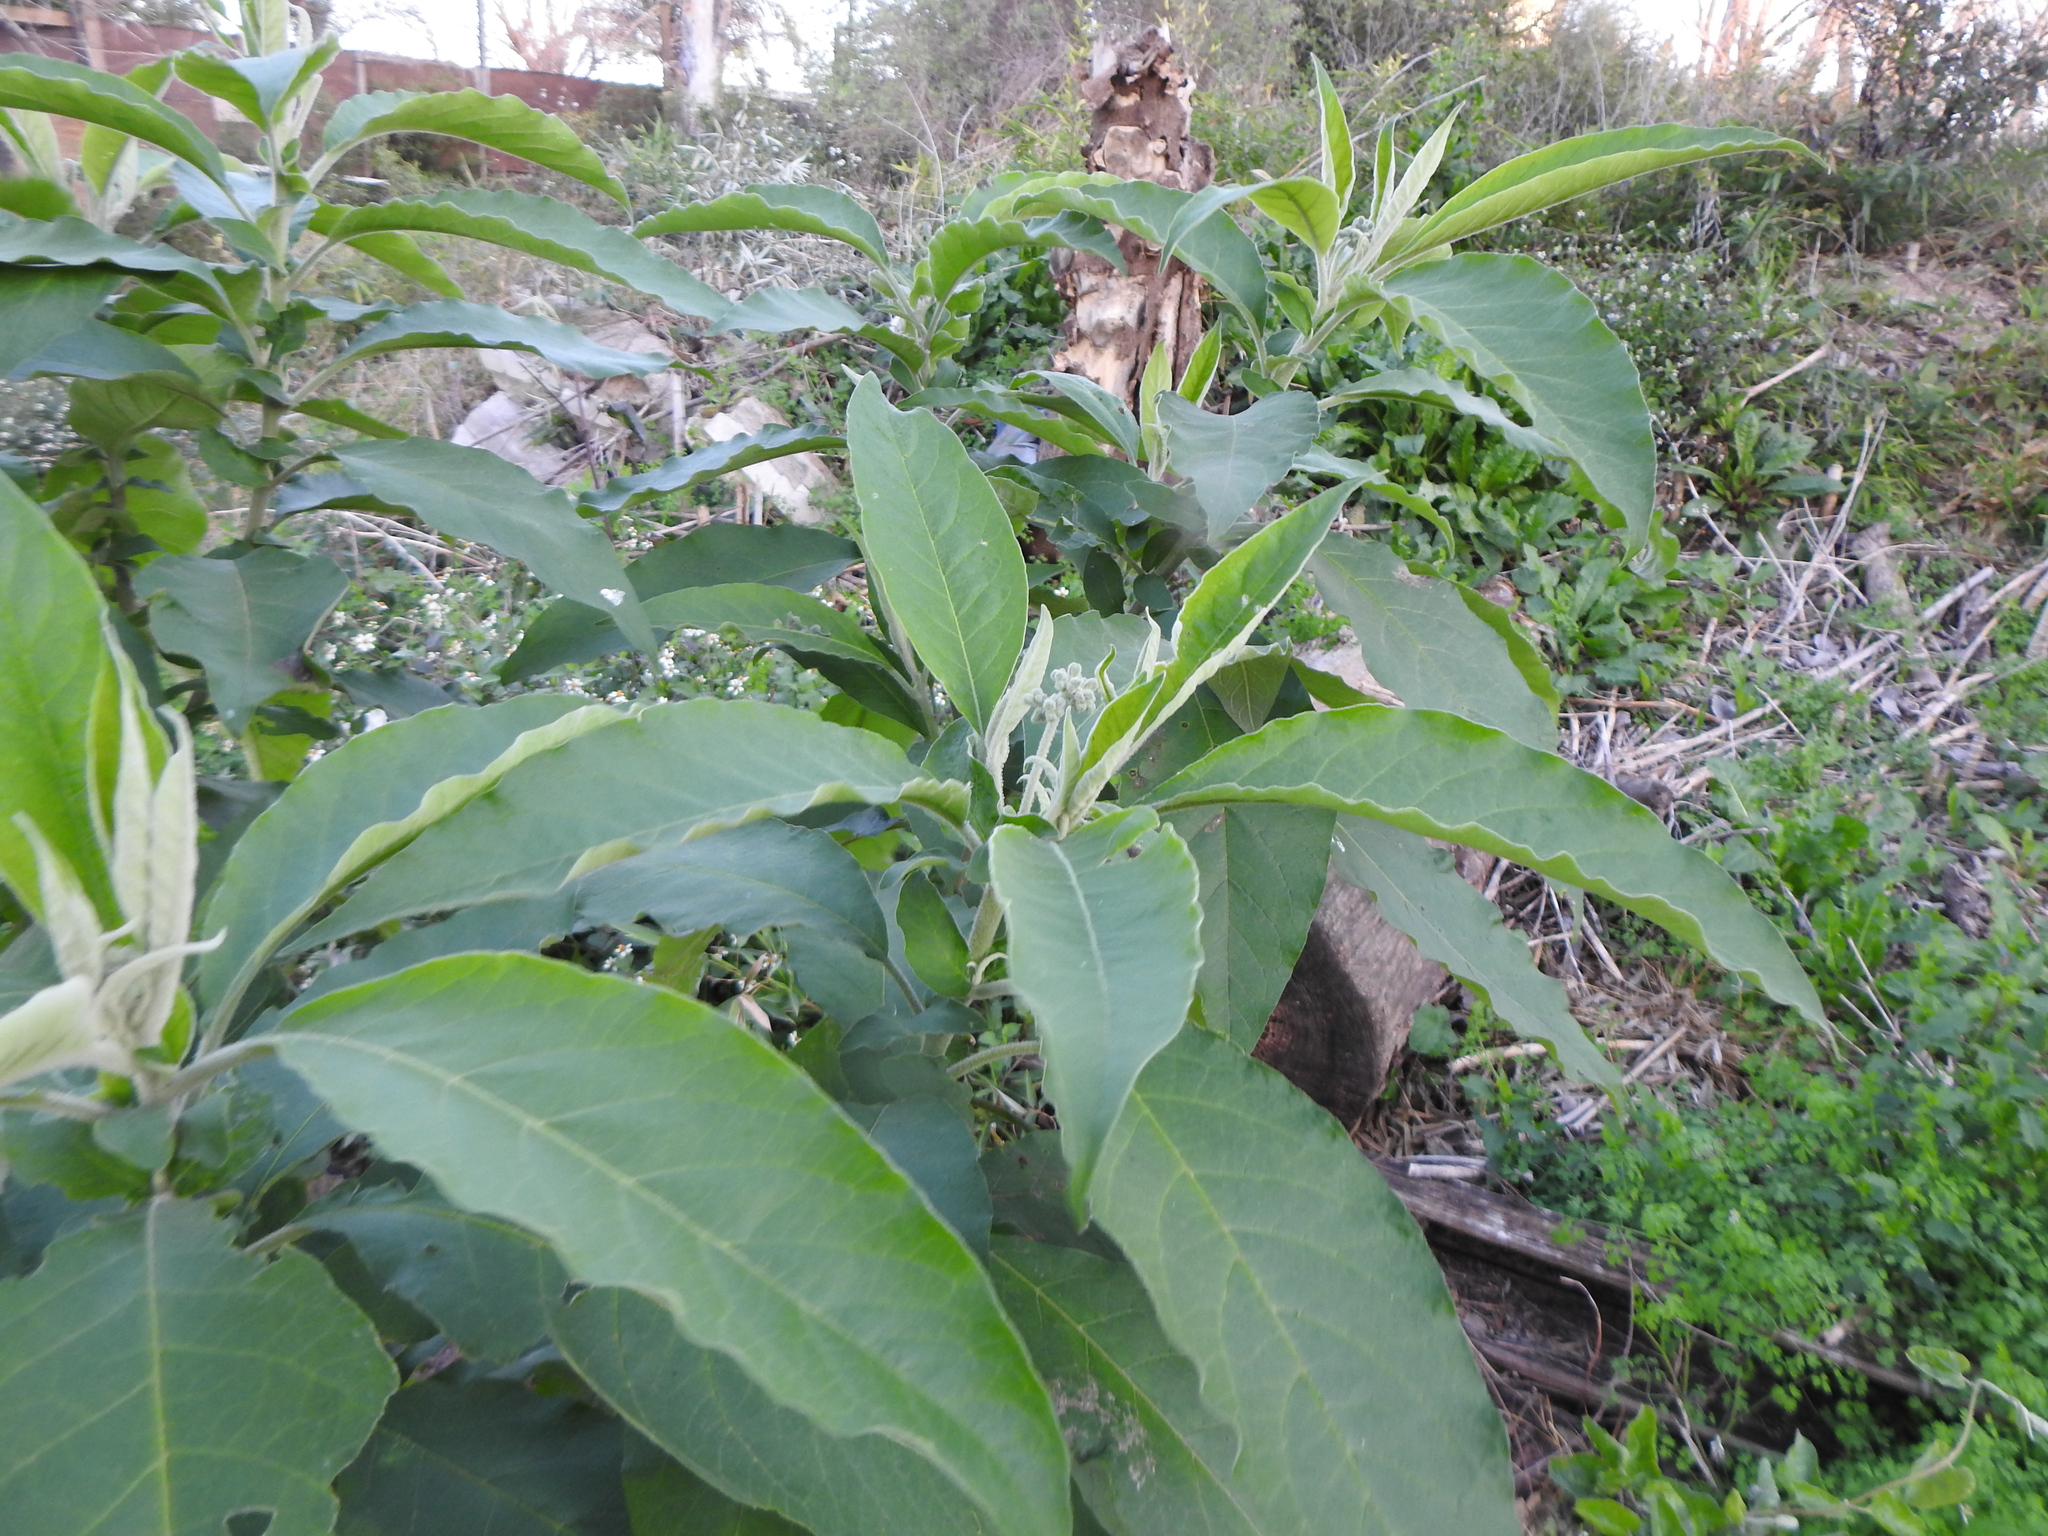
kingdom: Plantae
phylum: Tracheophyta
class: Magnoliopsida
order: Solanales
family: Solanaceae
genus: Solanum
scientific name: Solanum granulosoleprosum
